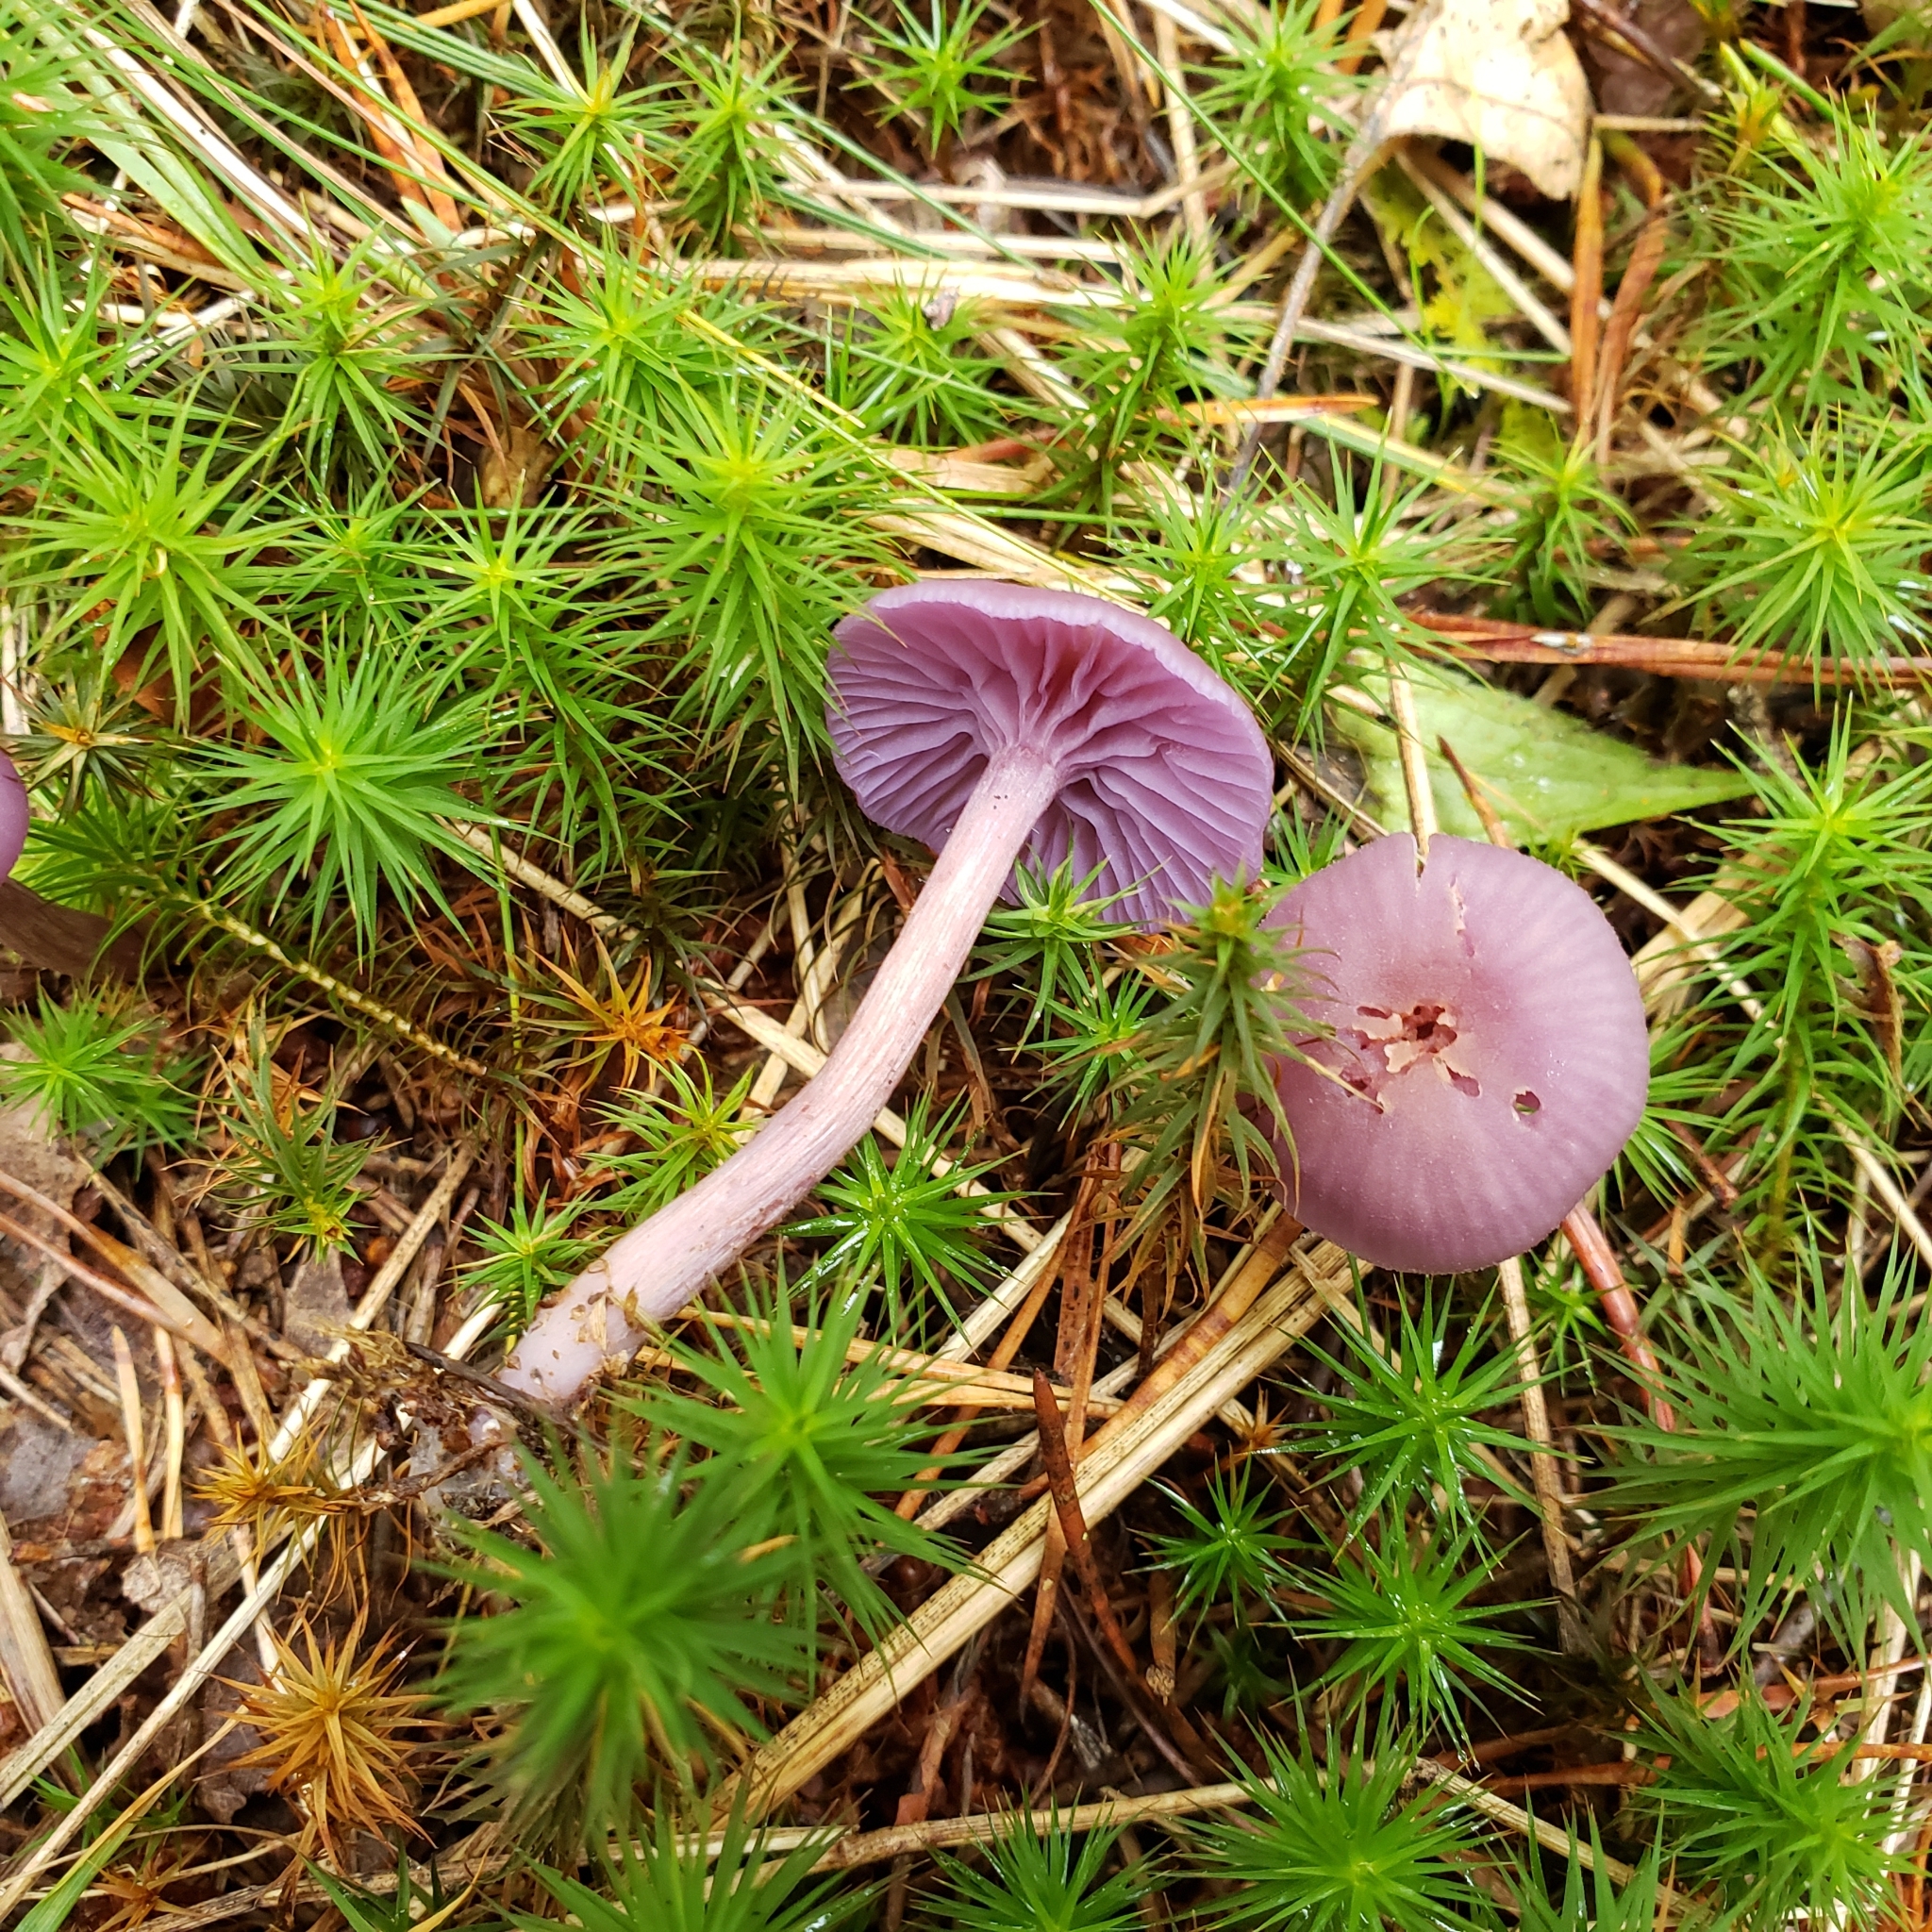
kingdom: Fungi
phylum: Basidiomycota
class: Agaricomycetes
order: Agaricales
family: Hydnangiaceae
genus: Laccaria
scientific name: Laccaria amethystina
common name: Amethyst deceiver
